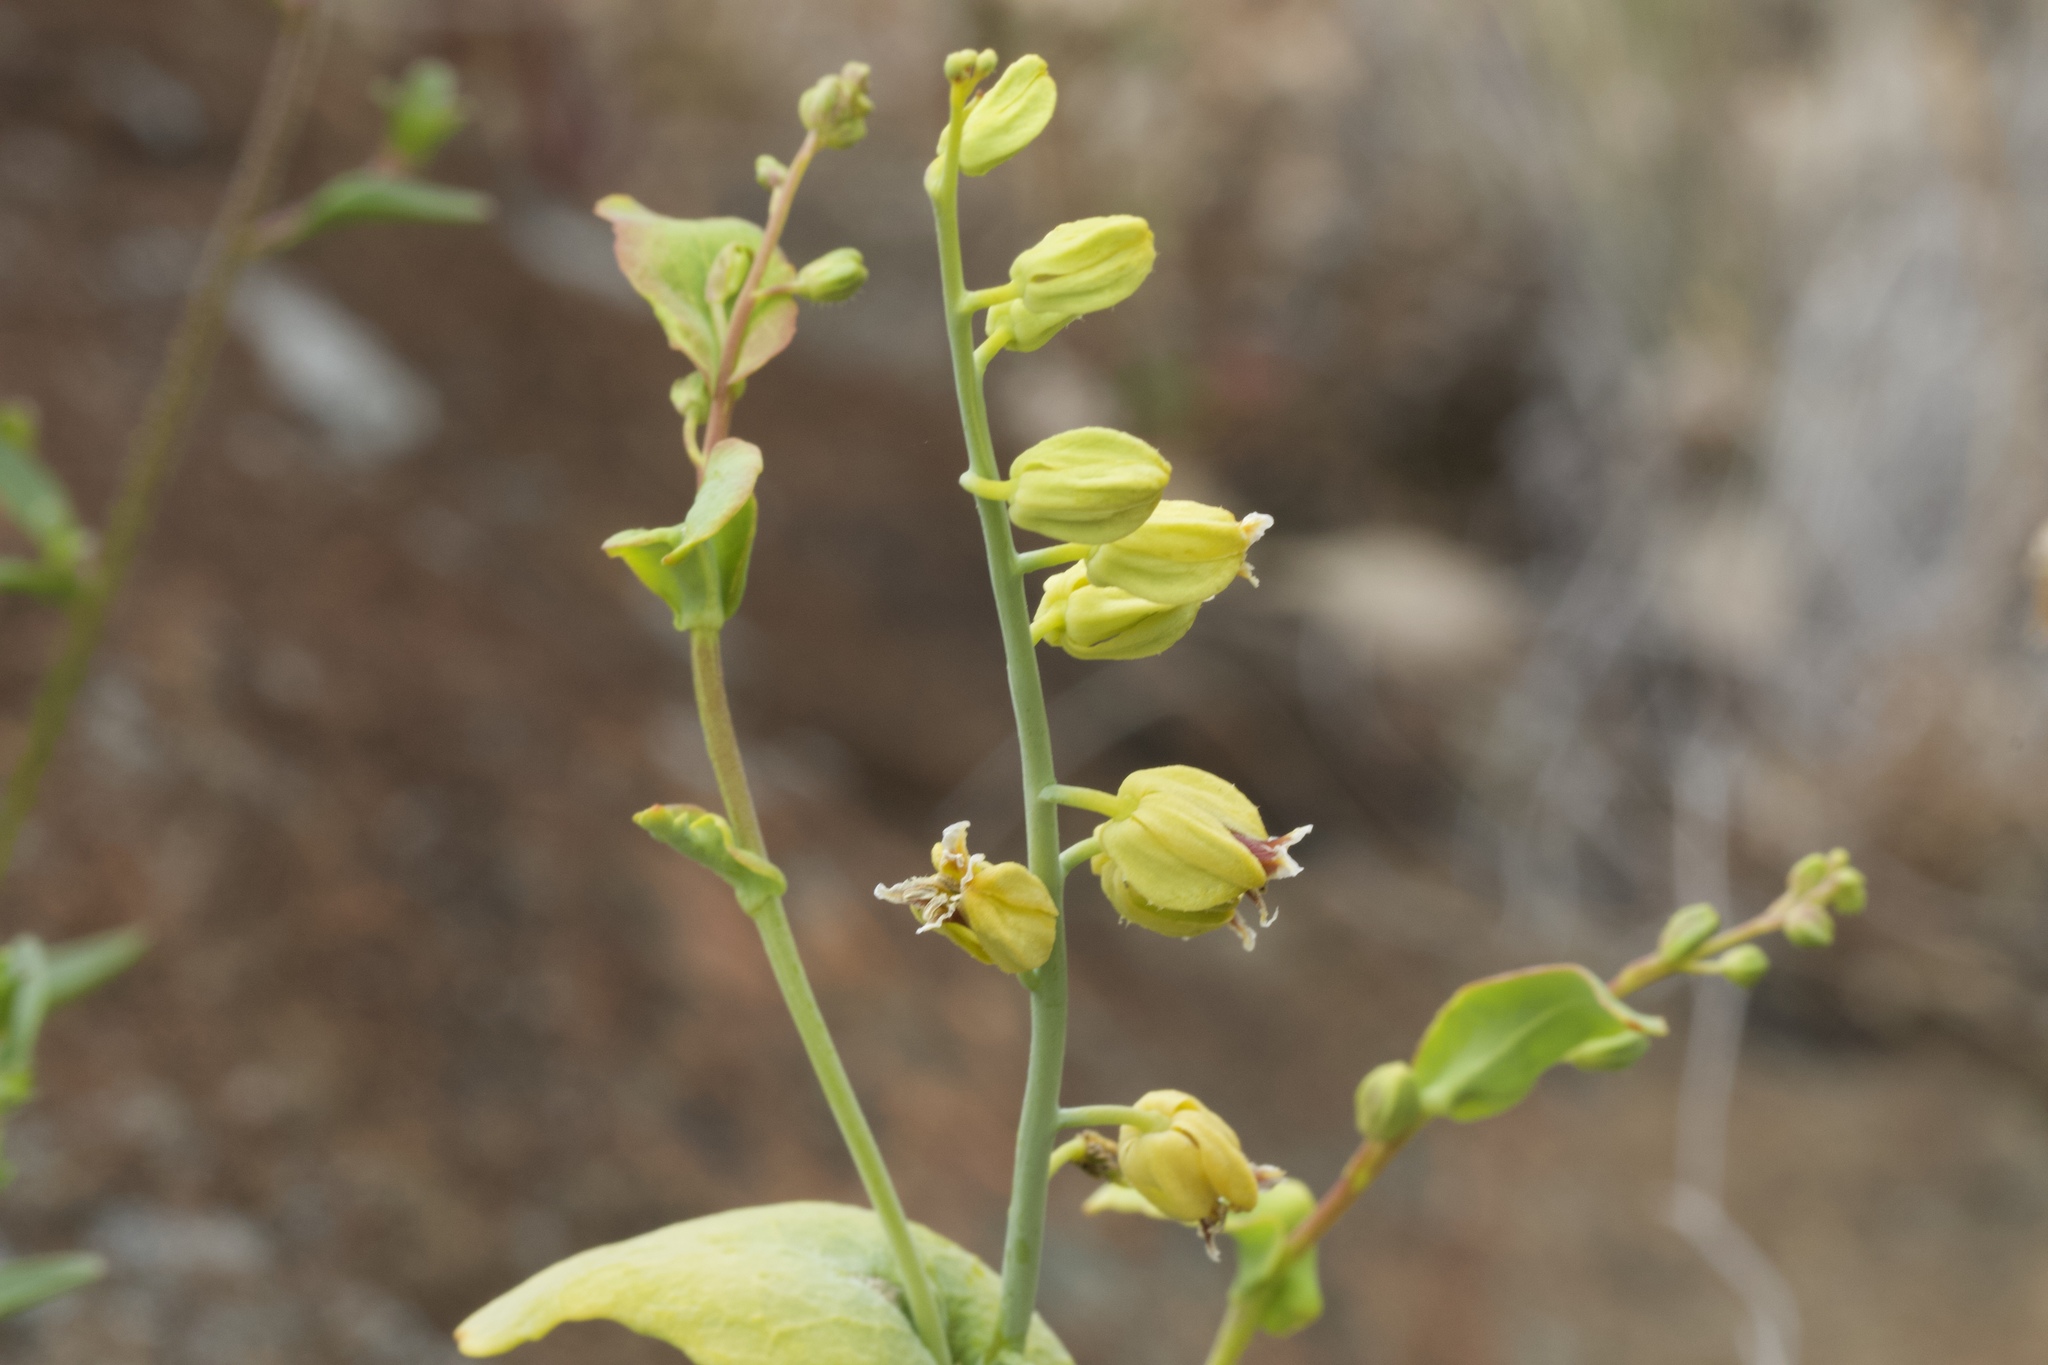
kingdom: Plantae
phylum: Tracheophyta
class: Magnoliopsida
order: Brassicales
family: Brassicaceae
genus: Streptanthus
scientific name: Streptanthus anomalus
